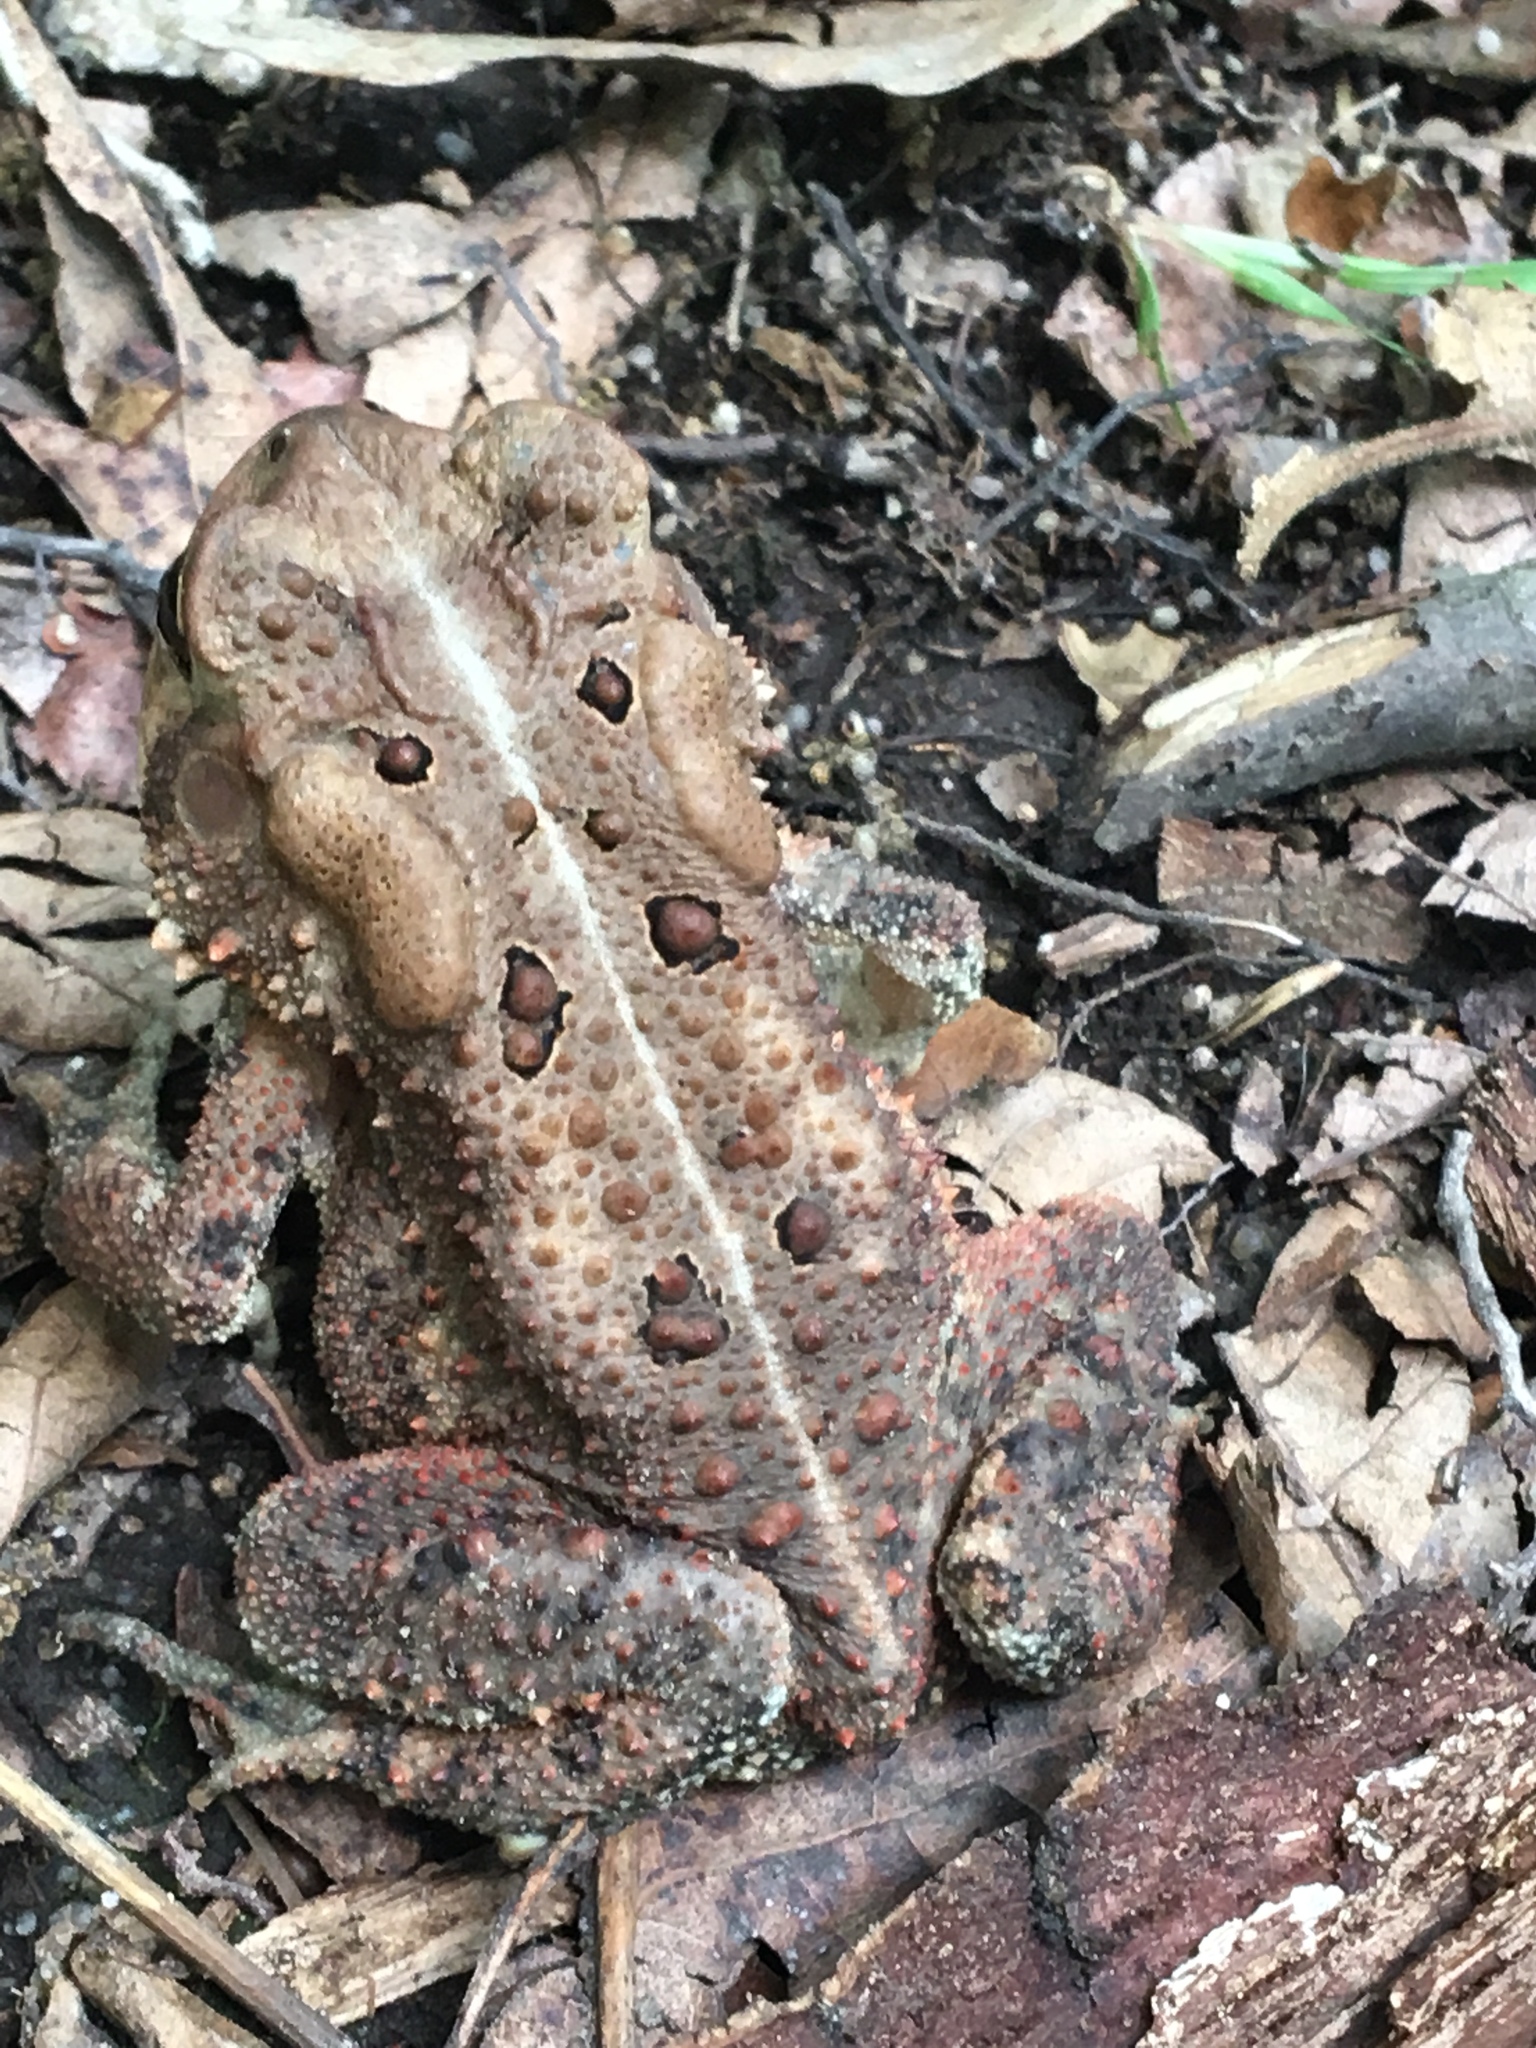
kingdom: Animalia
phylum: Chordata
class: Amphibia
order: Anura
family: Bufonidae
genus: Anaxyrus
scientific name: Anaxyrus americanus
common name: American toad
